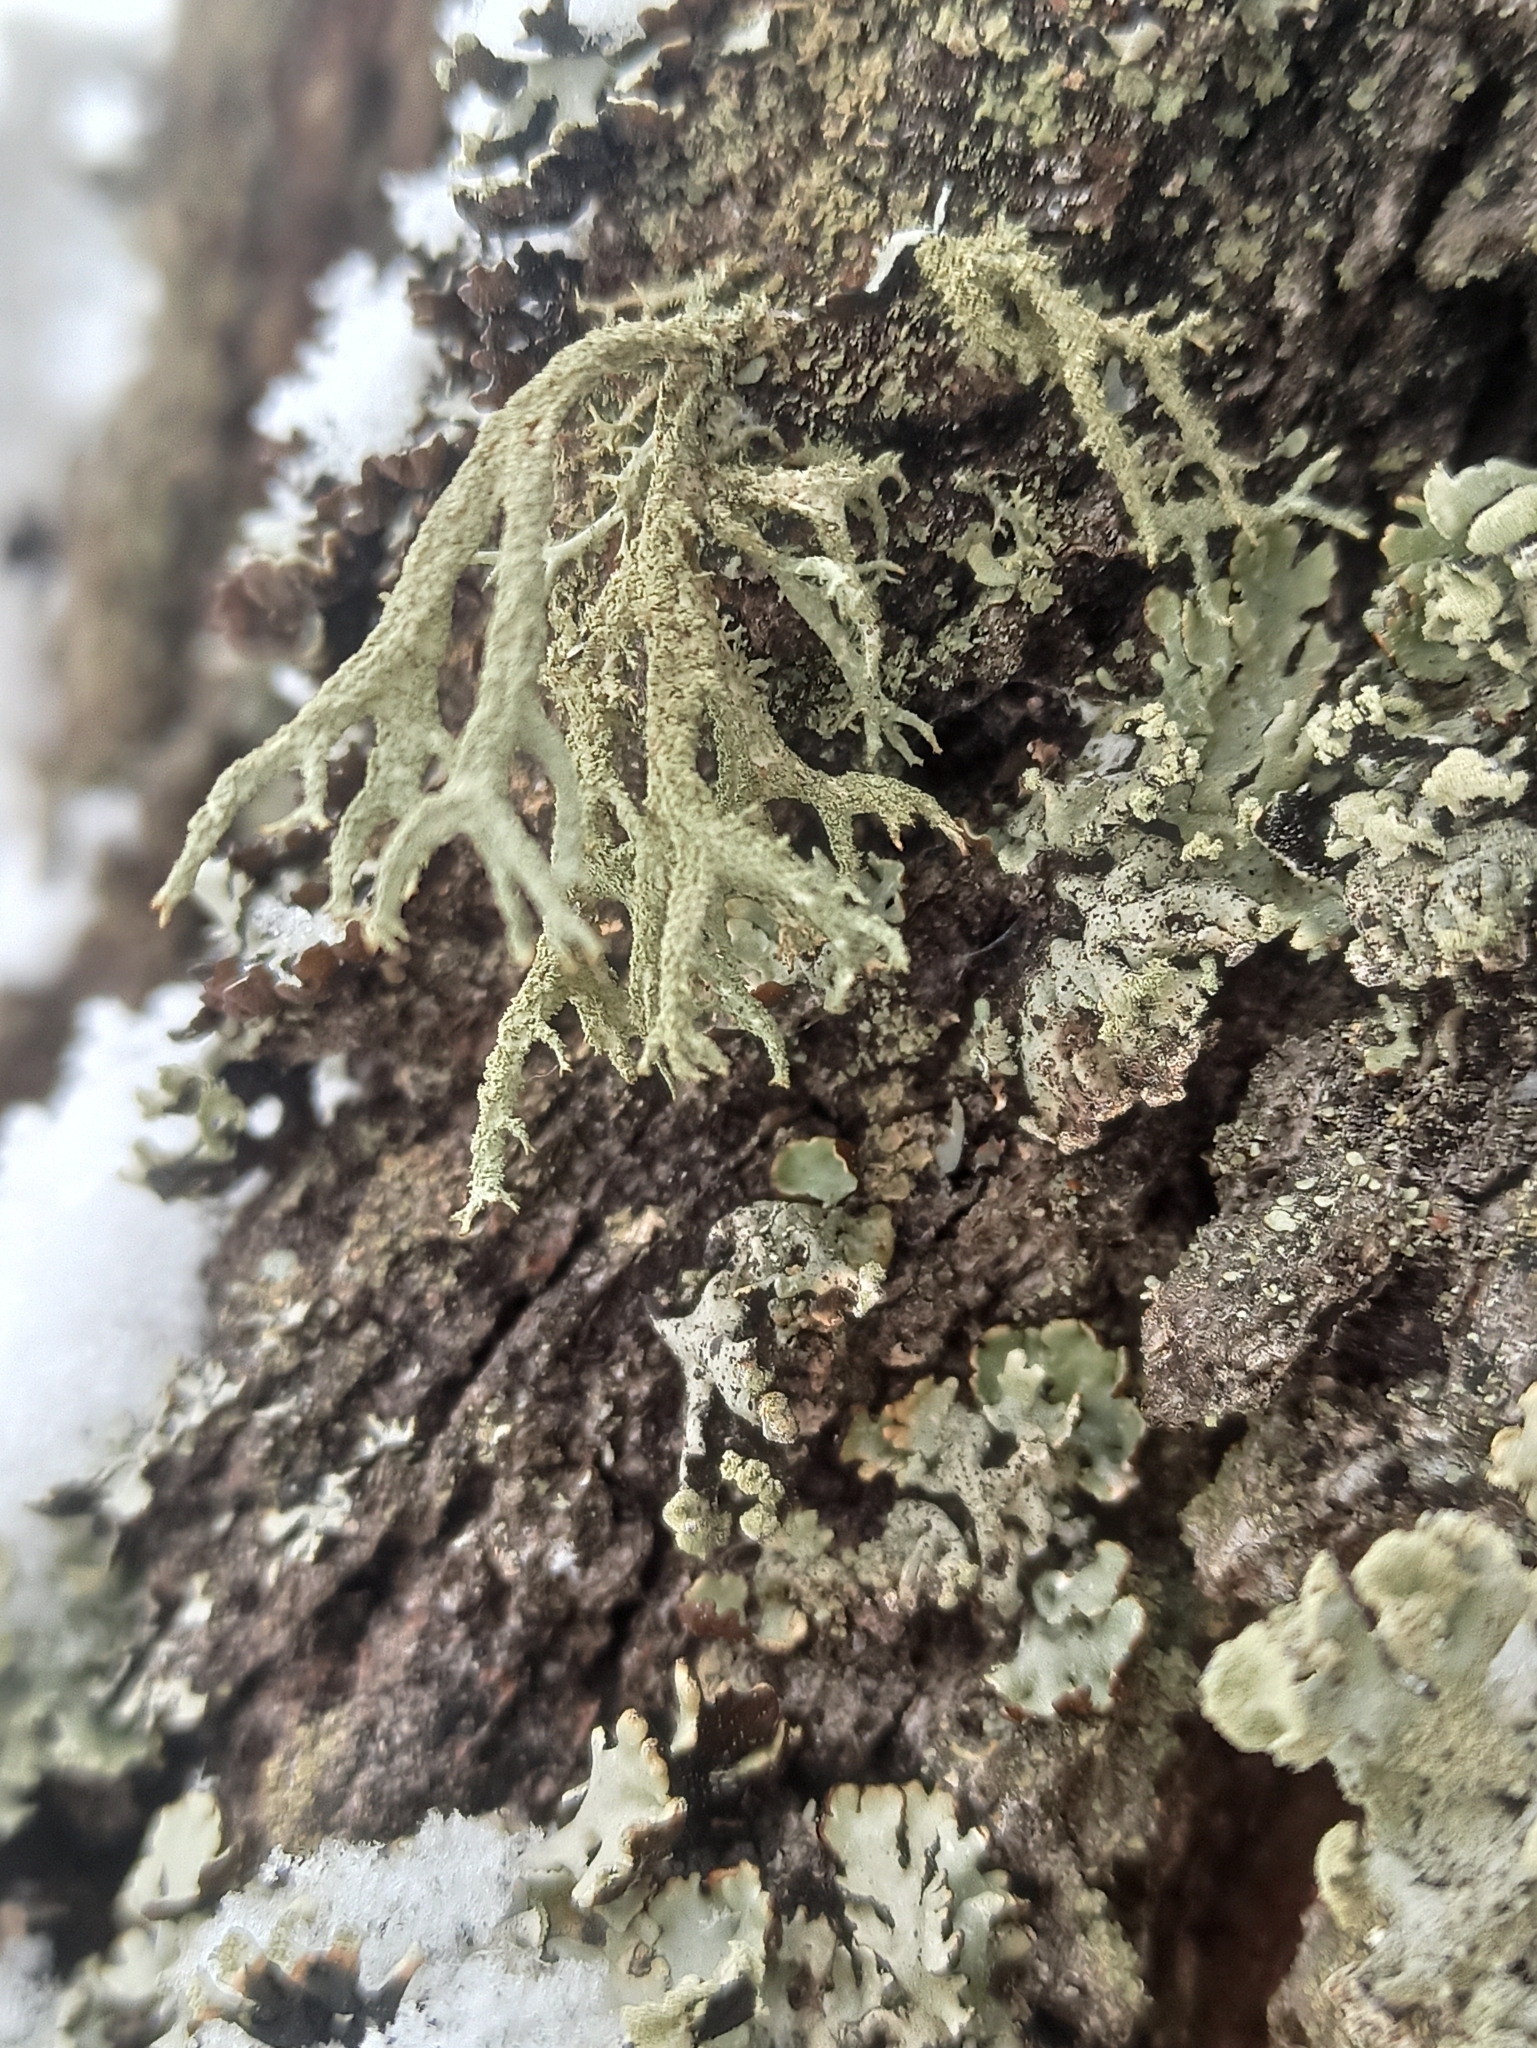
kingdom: Fungi
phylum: Ascomycota
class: Lecanoromycetes
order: Lecanorales
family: Parmeliaceae
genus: Evernia
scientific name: Evernia mesomorpha
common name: Boreal oak moss lichen
